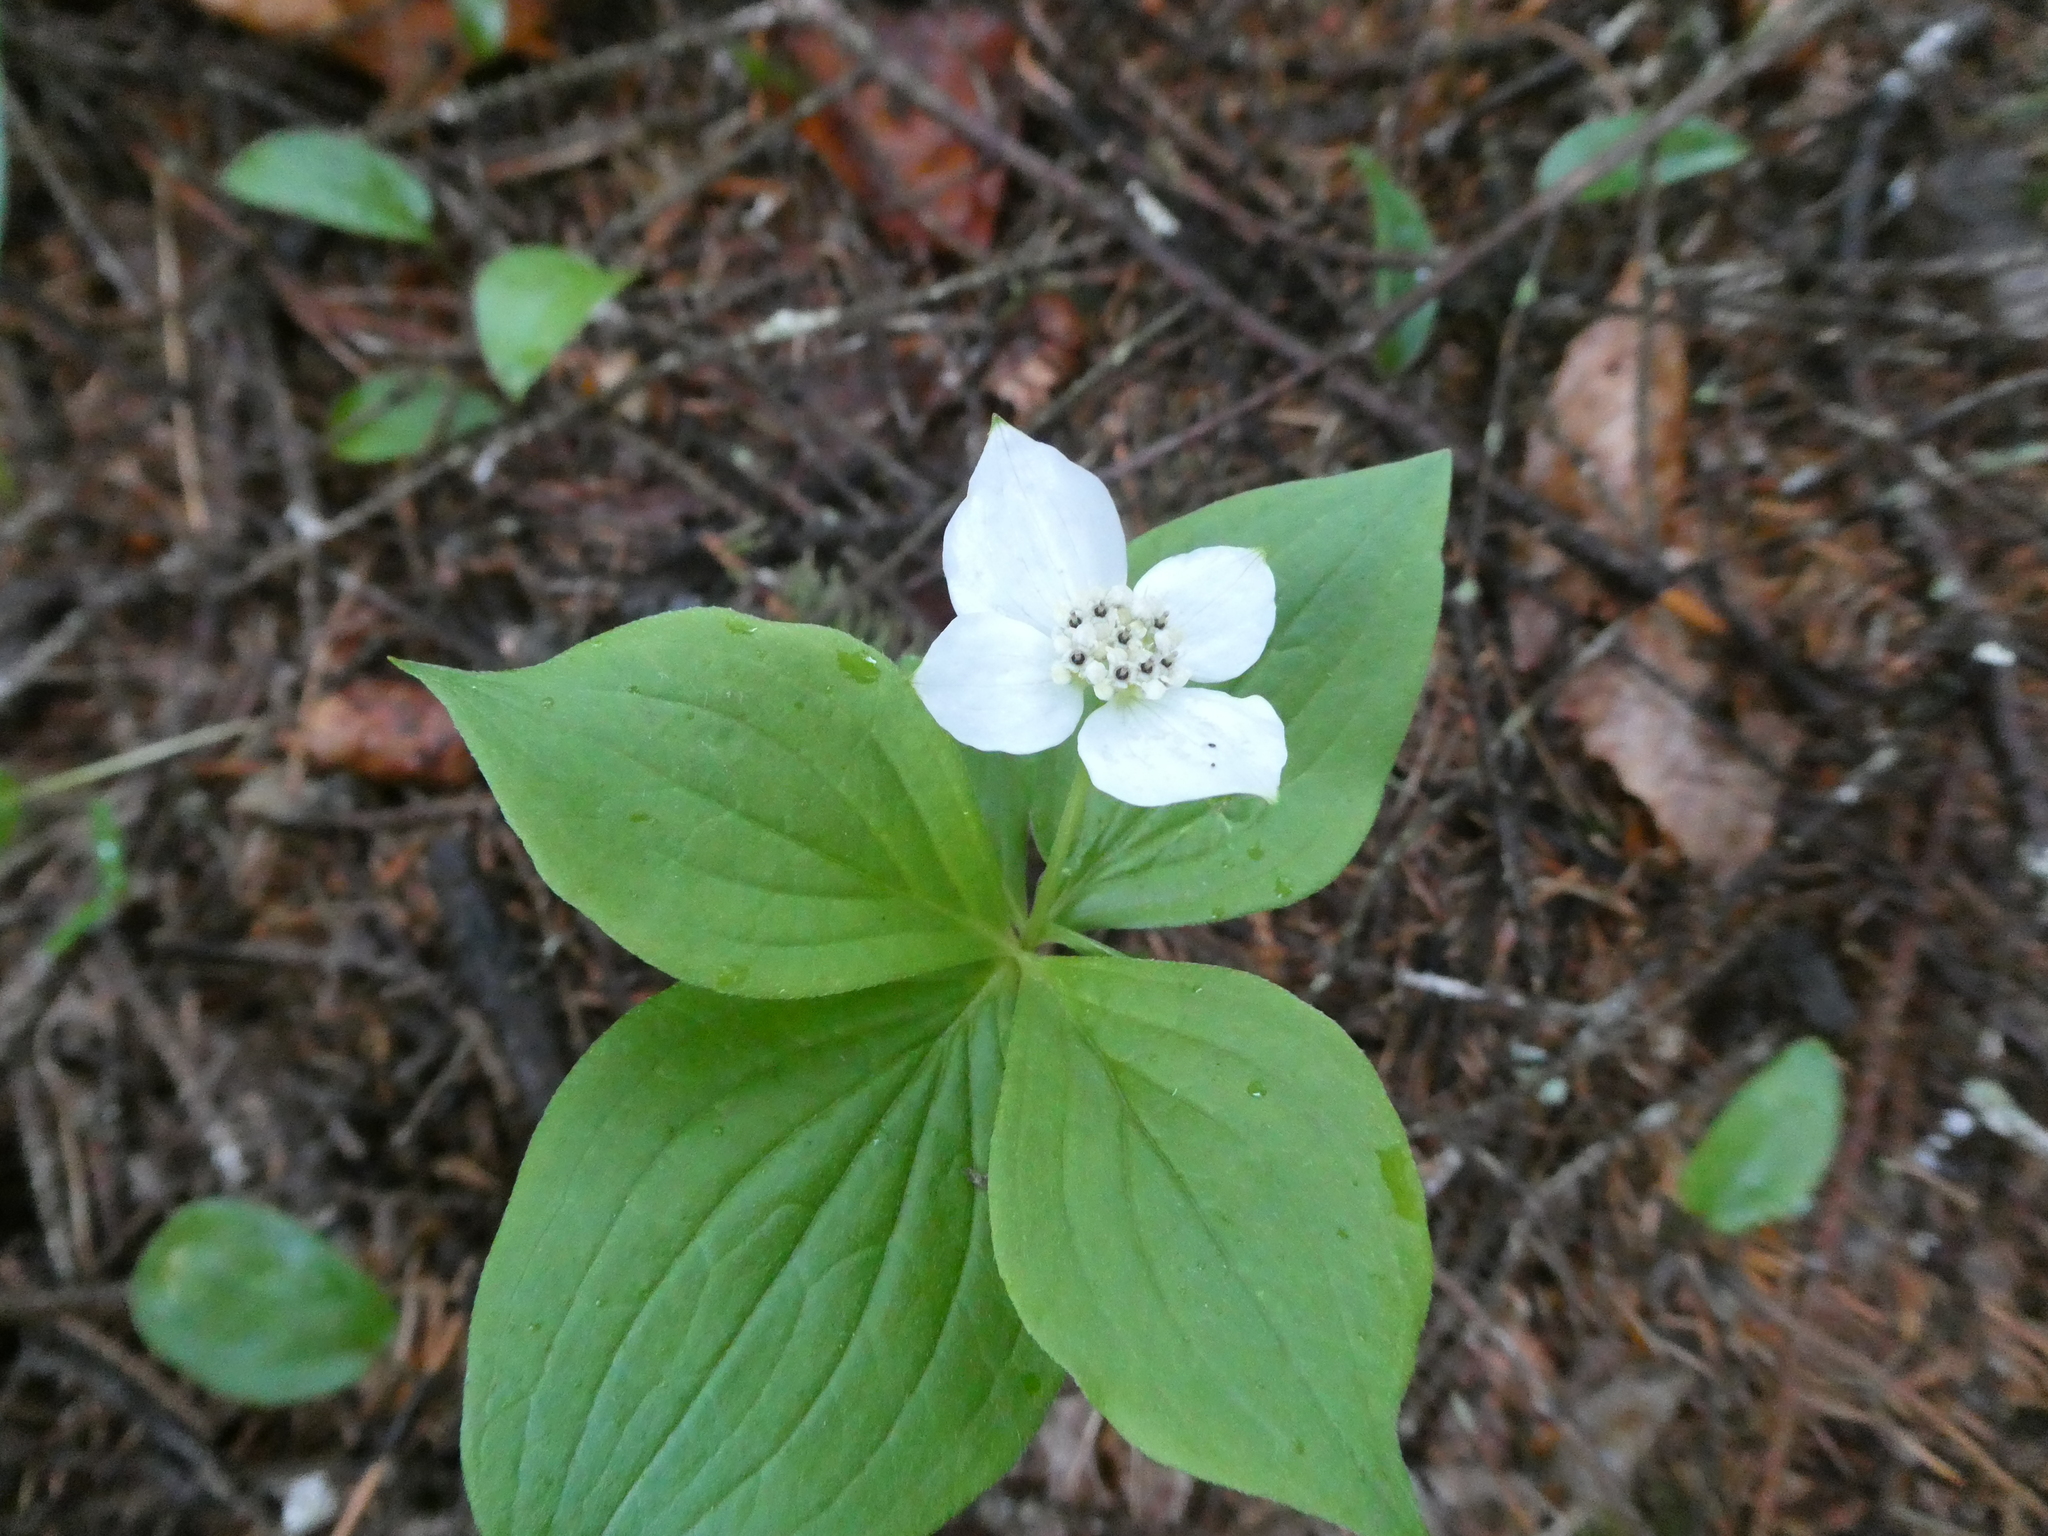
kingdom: Plantae
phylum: Tracheophyta
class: Magnoliopsida
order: Cornales
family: Cornaceae
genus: Cornus
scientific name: Cornus canadensis
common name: Creeping dogwood
